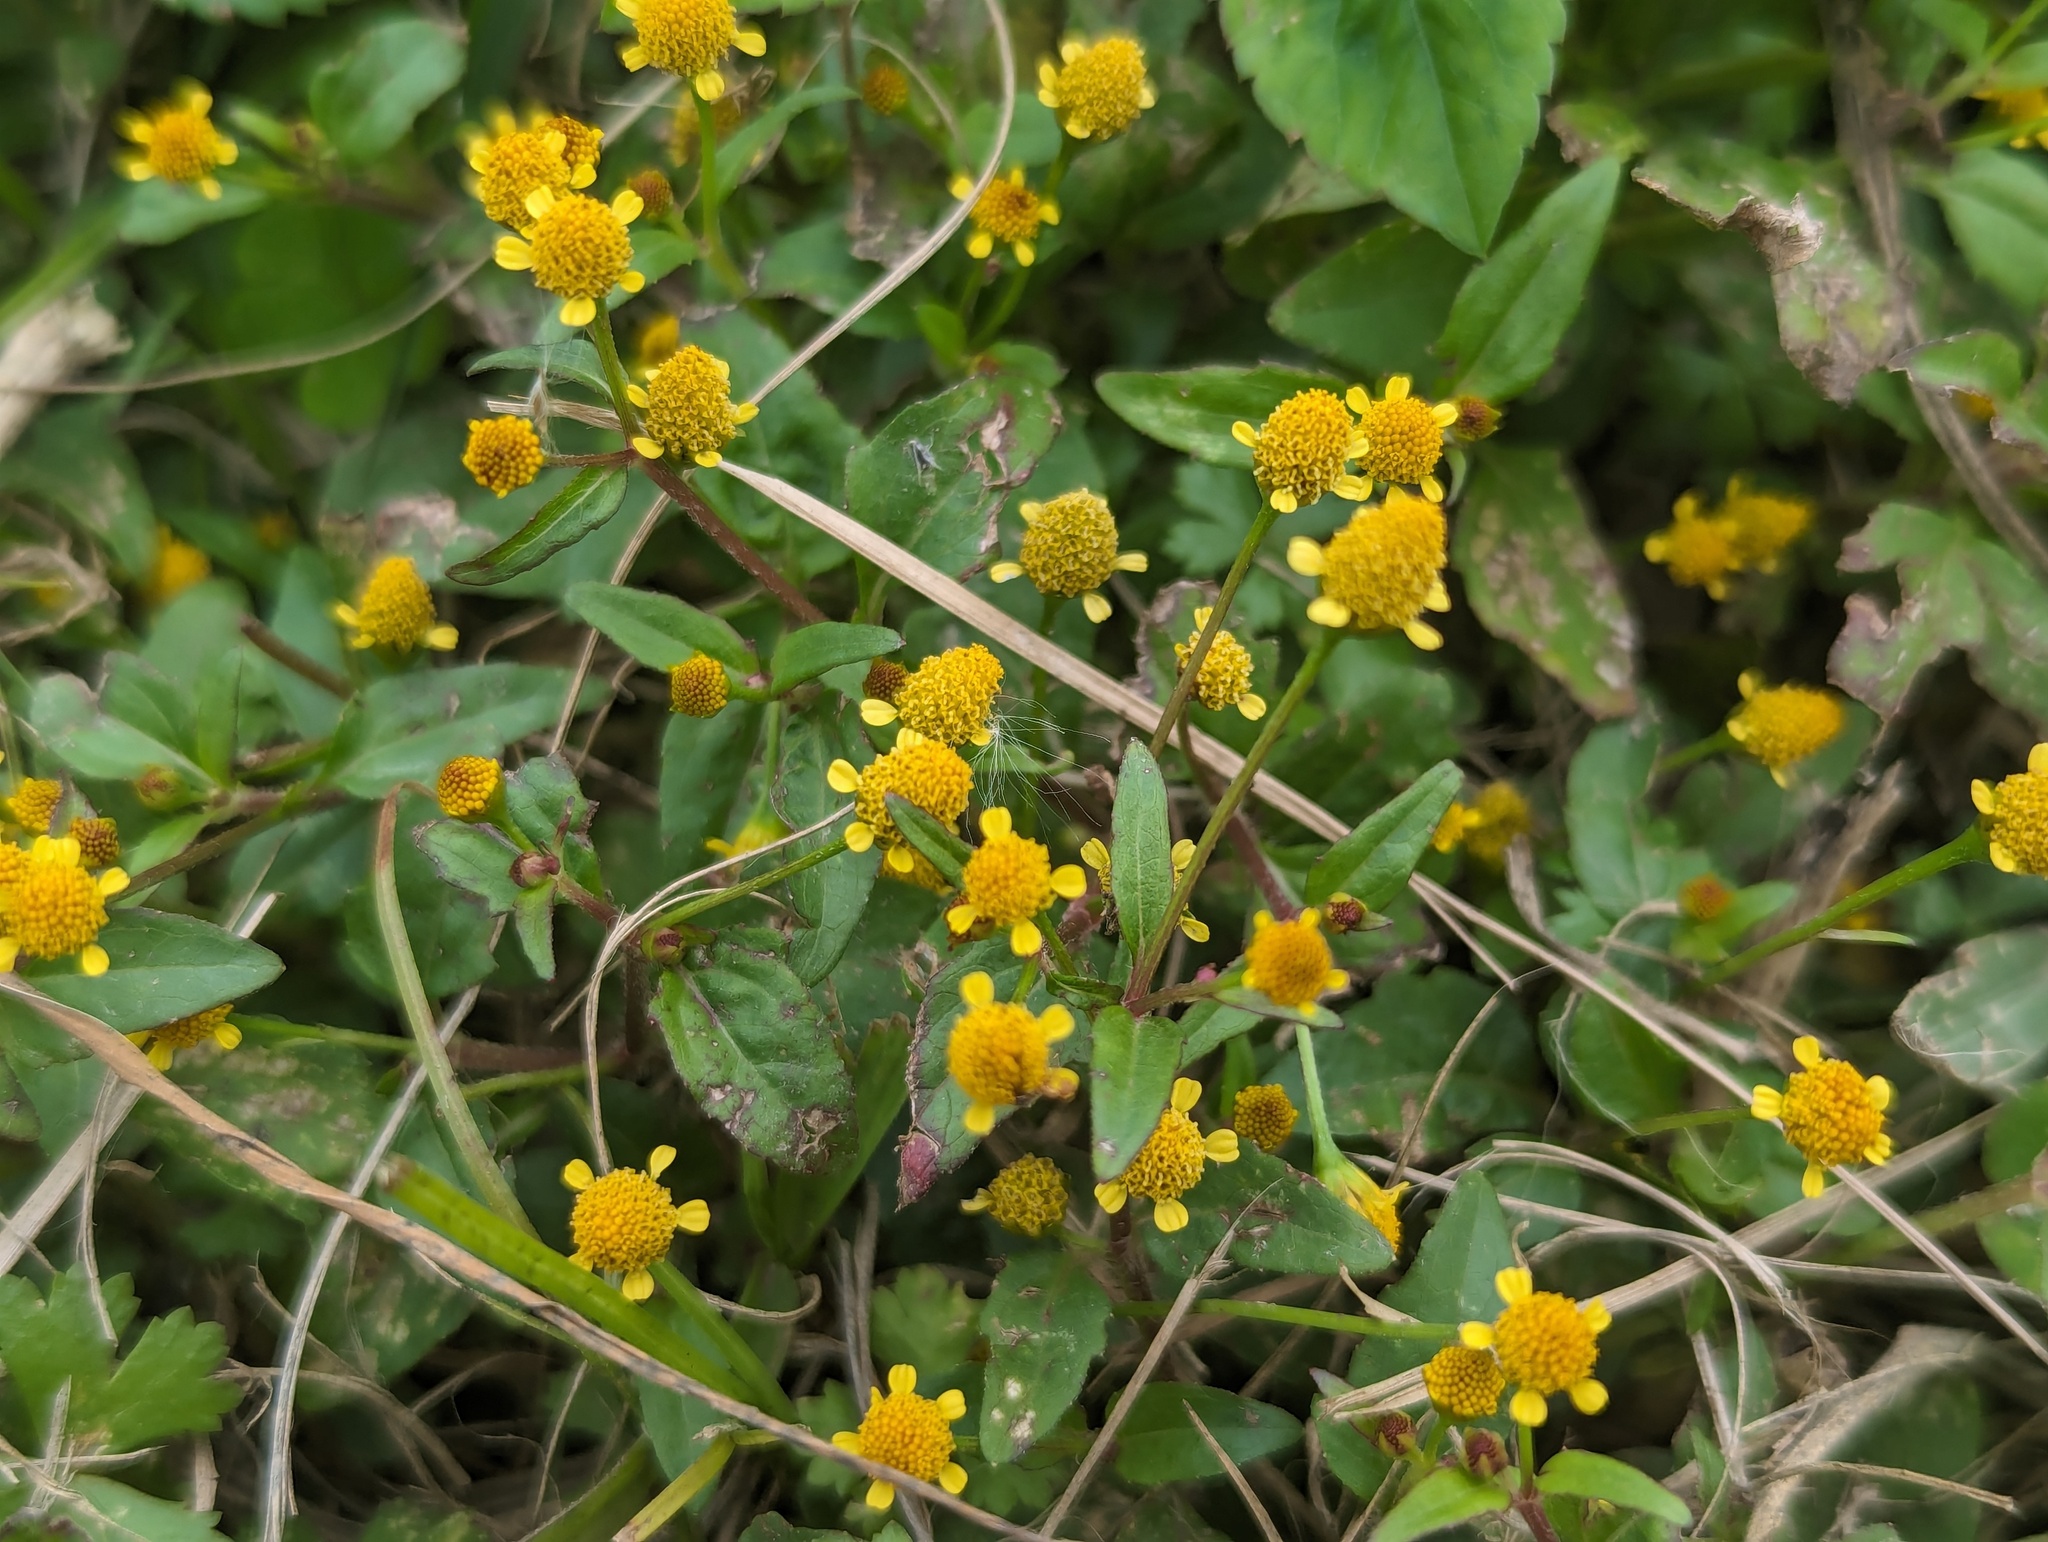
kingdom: Plantae
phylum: Tracheophyta
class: Magnoliopsida
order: Asterales
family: Asteraceae
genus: Acmella
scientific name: Acmella uliginosa
